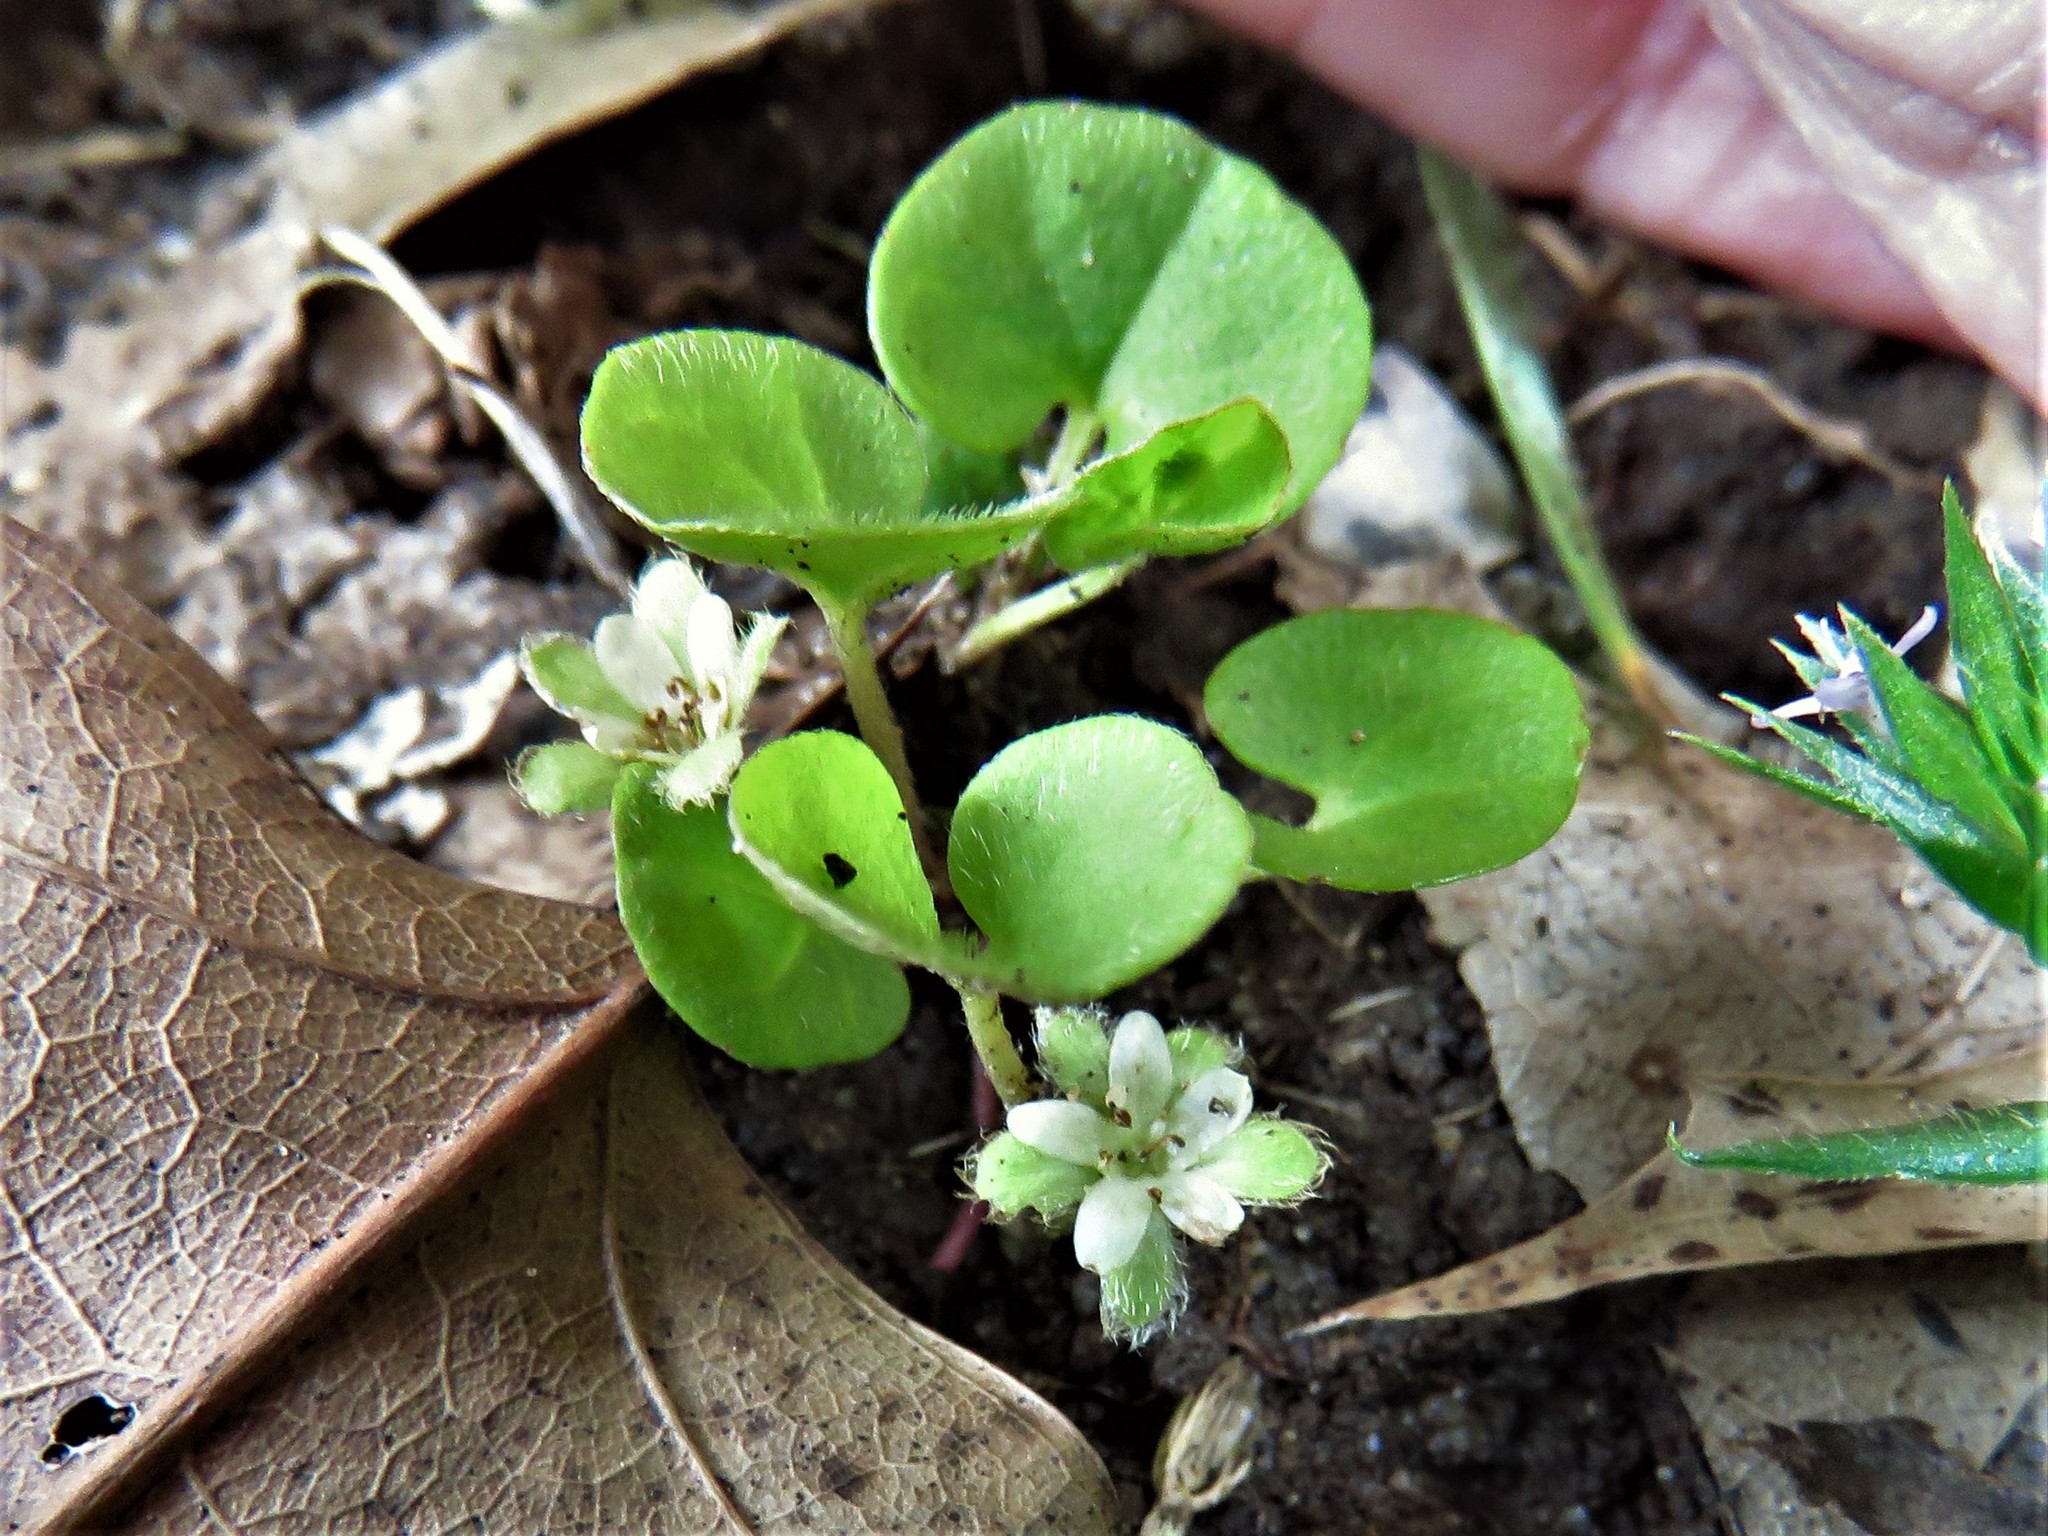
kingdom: Plantae
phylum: Tracheophyta
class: Magnoliopsida
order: Solanales
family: Convolvulaceae
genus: Dichondra
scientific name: Dichondra carolinensis
